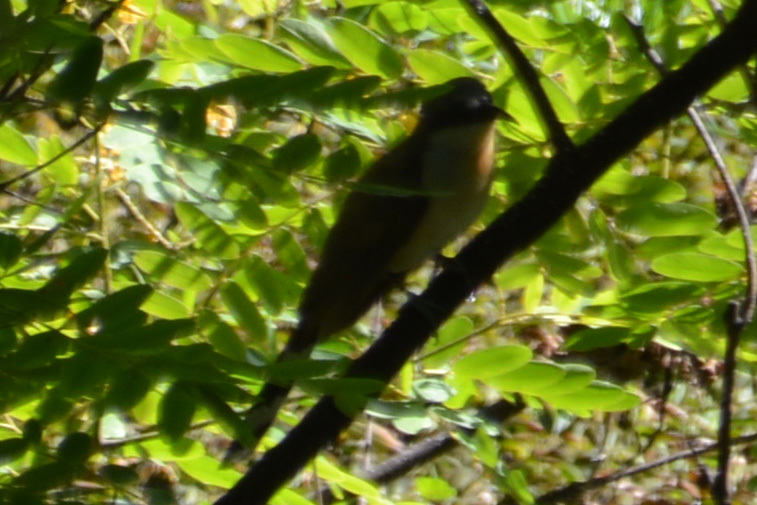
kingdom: Animalia
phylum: Chordata
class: Aves
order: Cuculiformes
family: Cuculidae
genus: Coccyzus
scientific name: Coccyzus melacoryphus
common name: Dark-billed cuckoo
